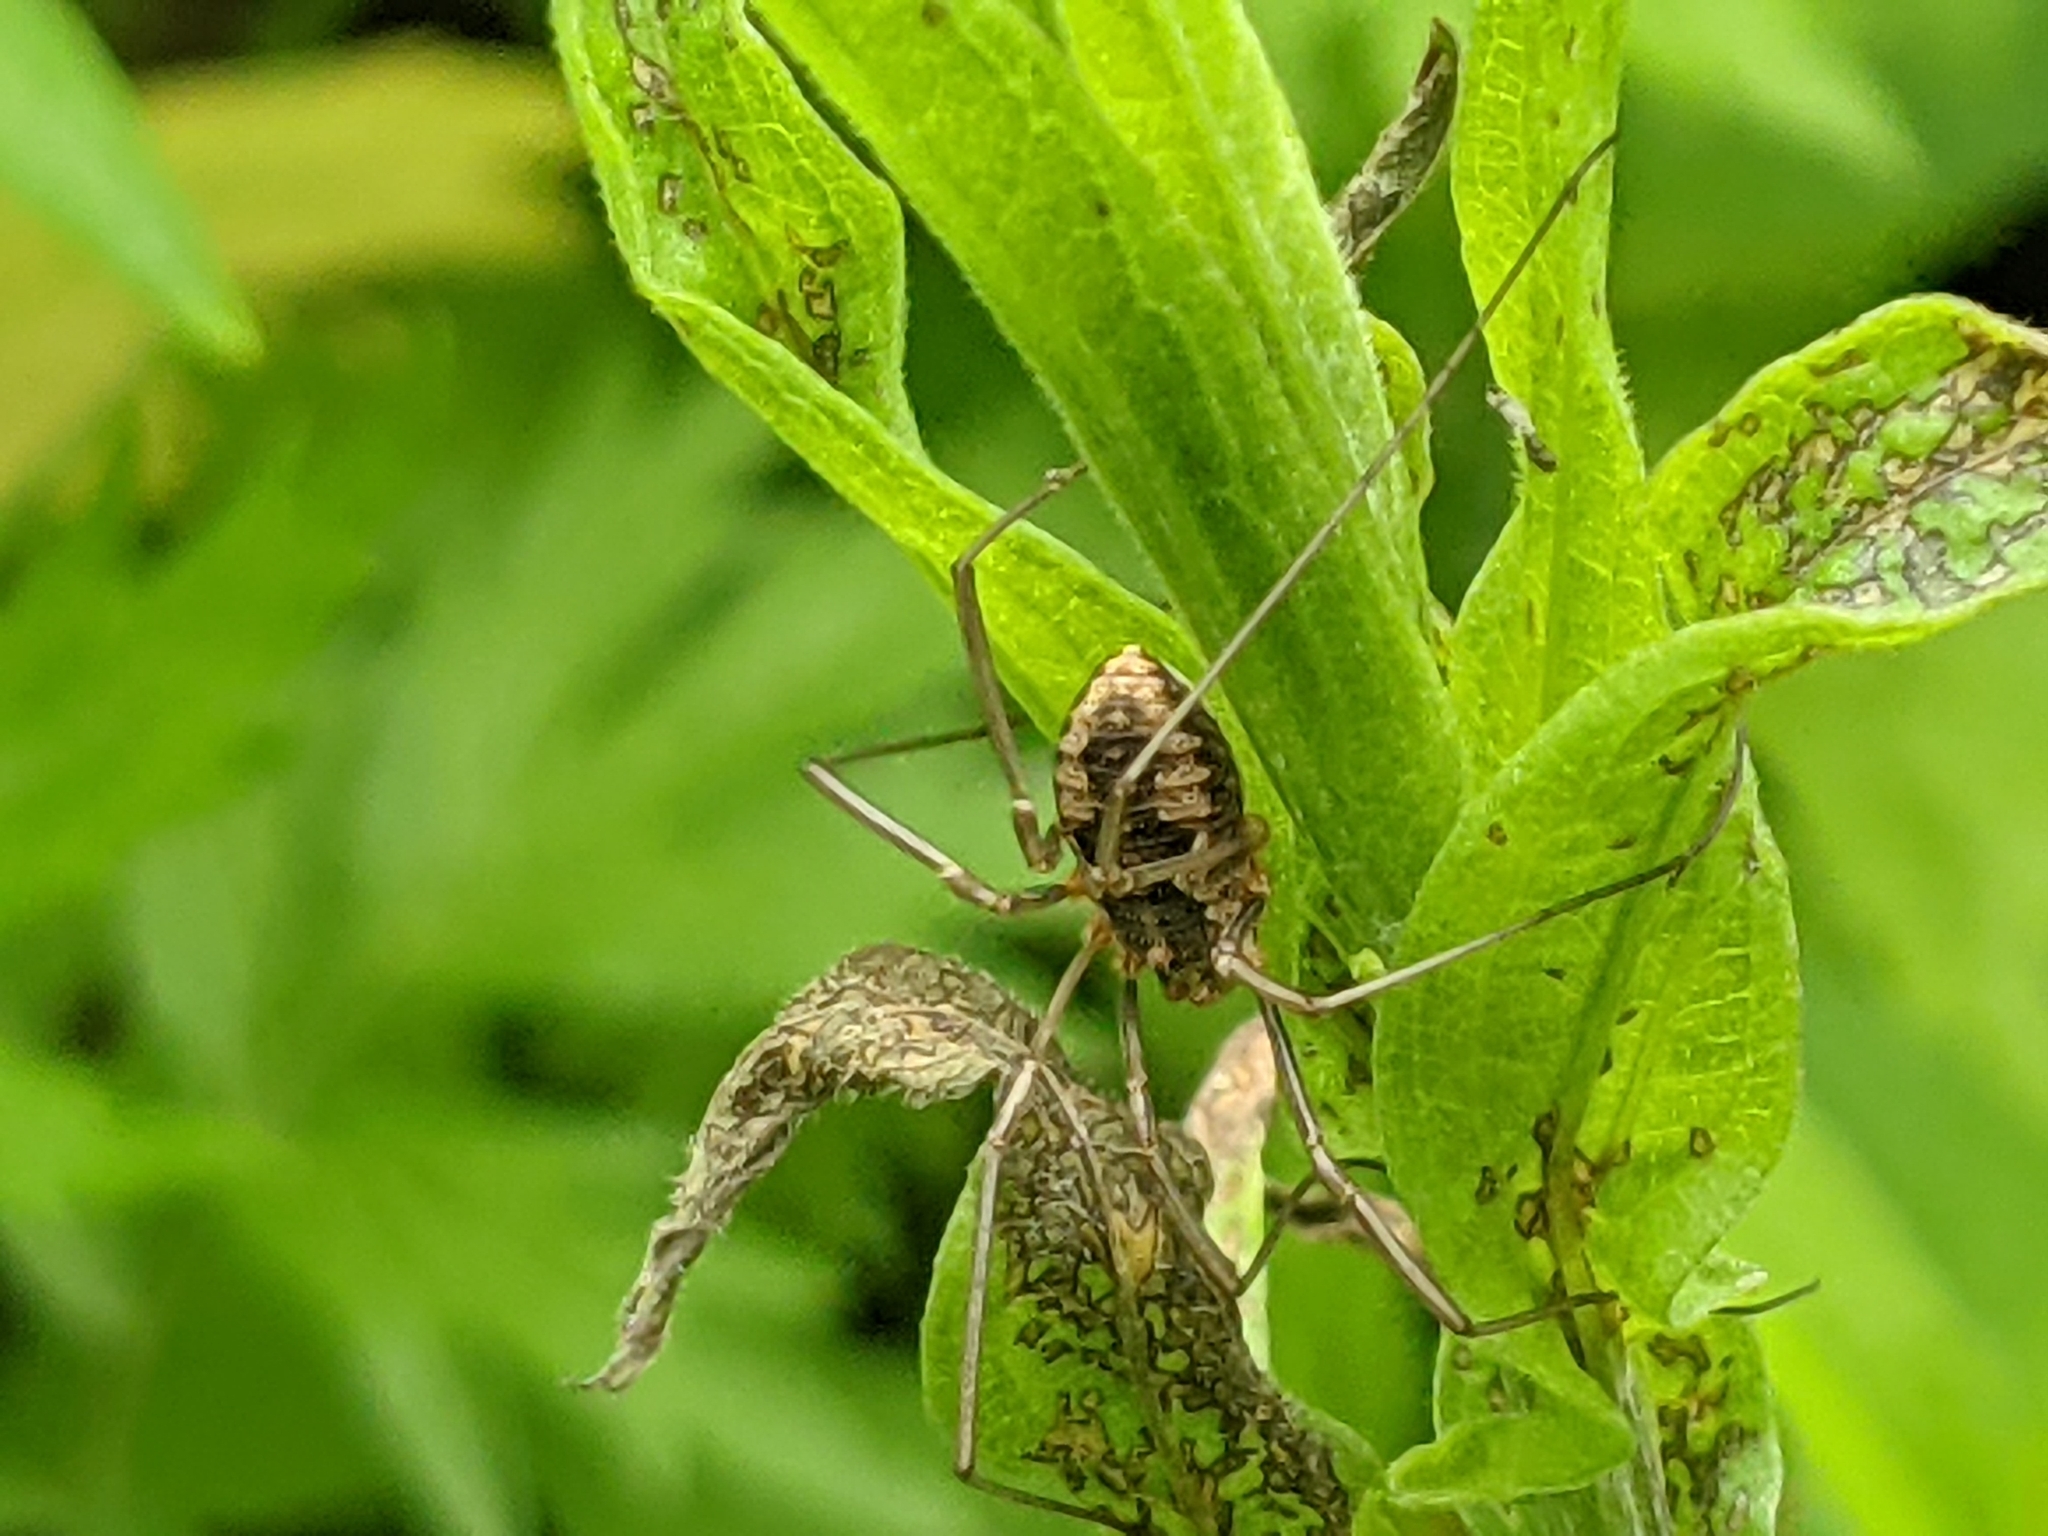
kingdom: Animalia
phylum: Arthropoda
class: Arachnida
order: Opiliones
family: Phalangiidae
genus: Phalangium
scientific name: Phalangium opilio
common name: Daddy longleg
